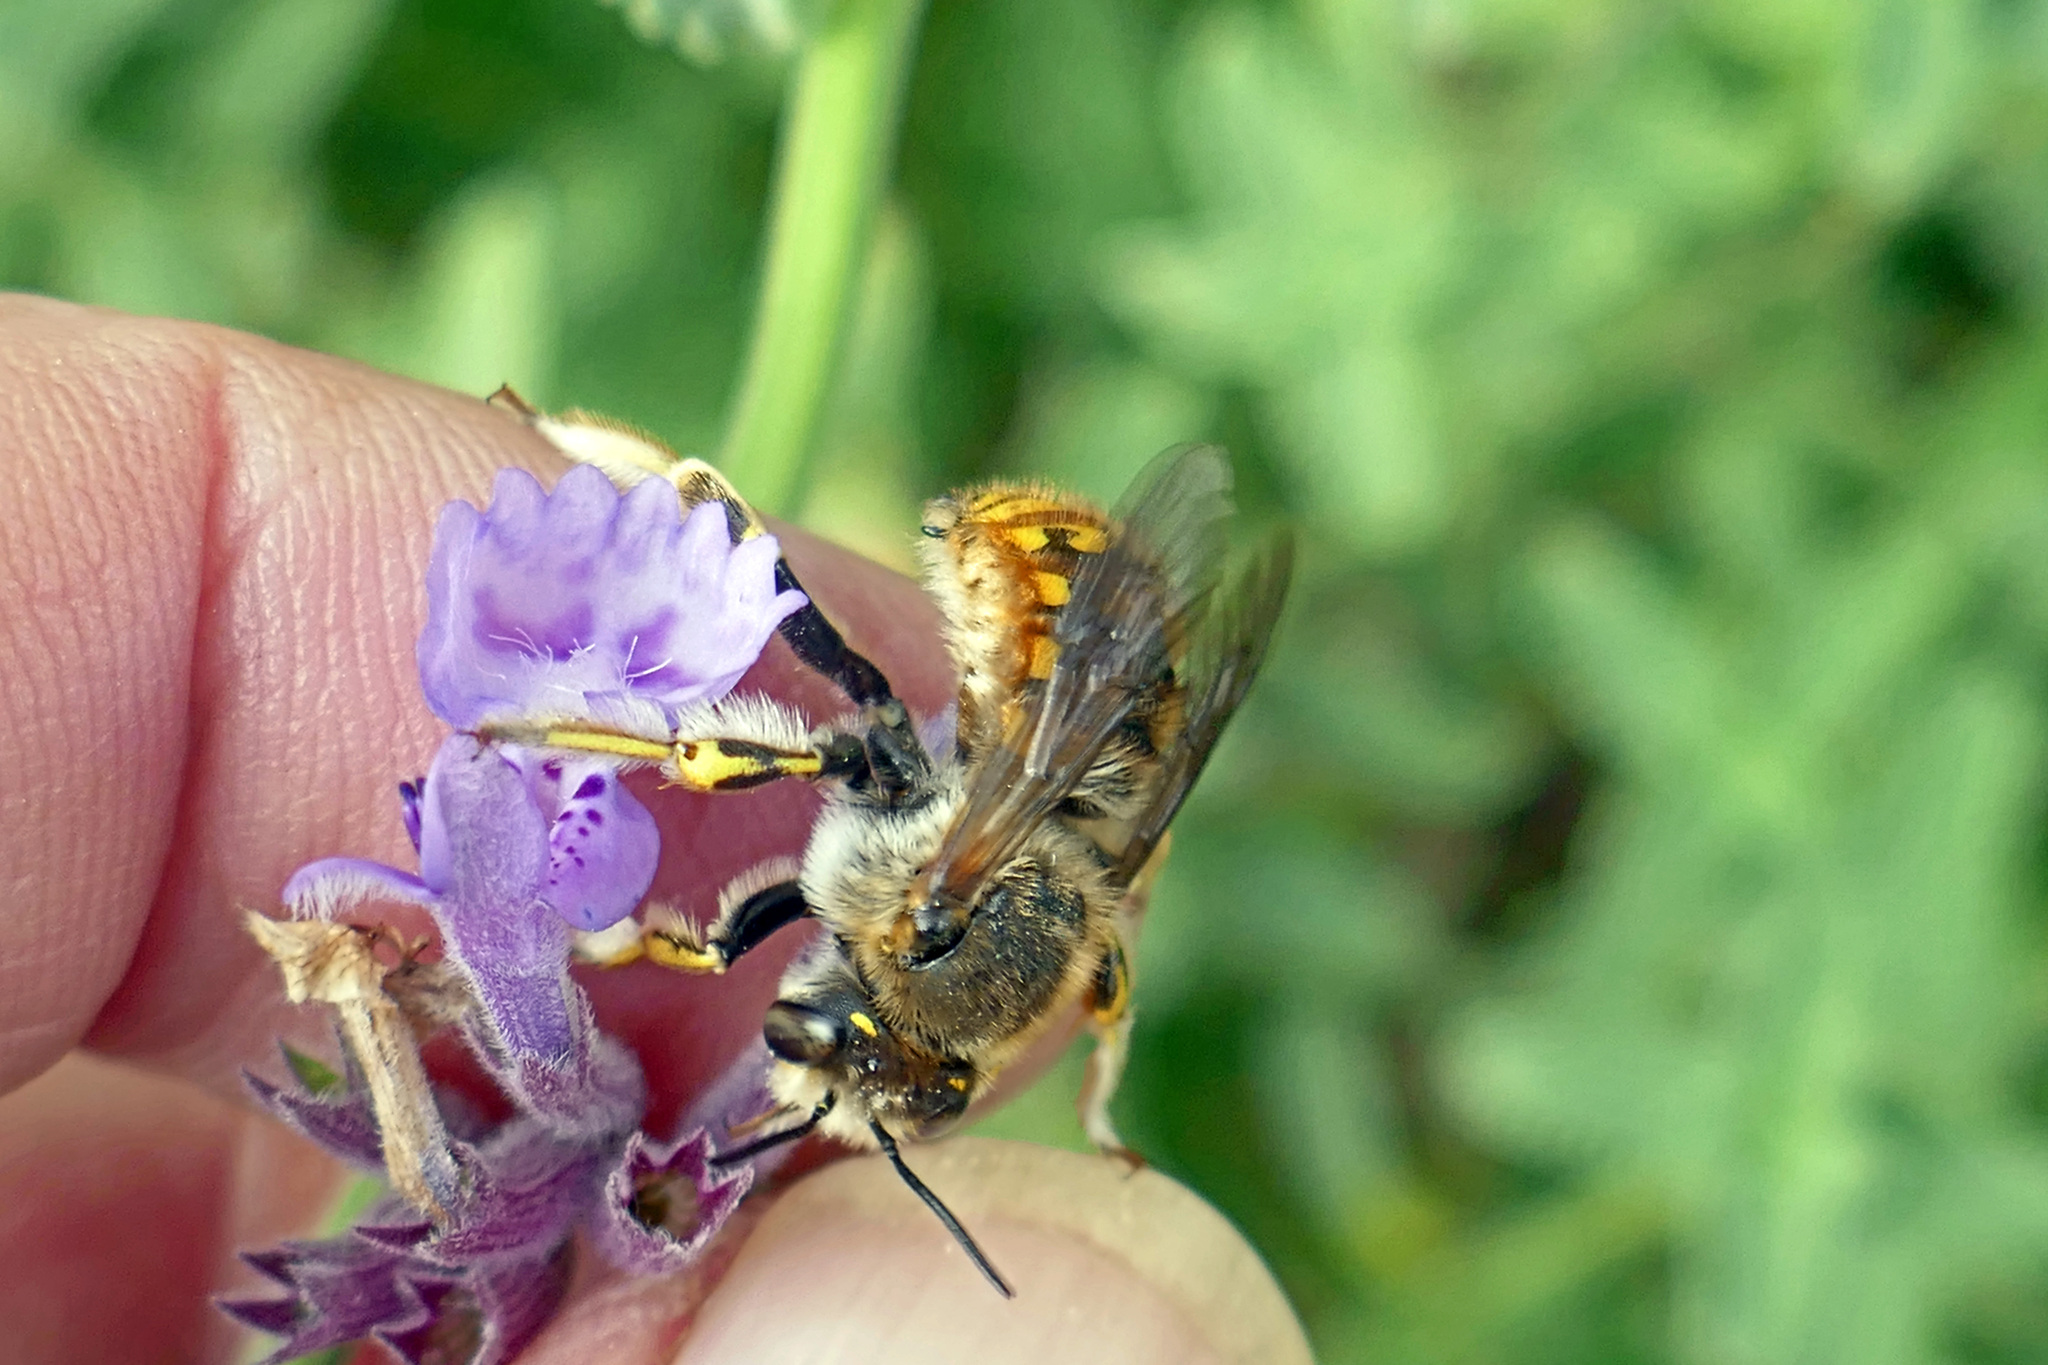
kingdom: Animalia
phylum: Arthropoda
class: Insecta
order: Hymenoptera
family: Megachilidae
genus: Anthidium
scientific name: Anthidium manicatum
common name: Wool carder bee
